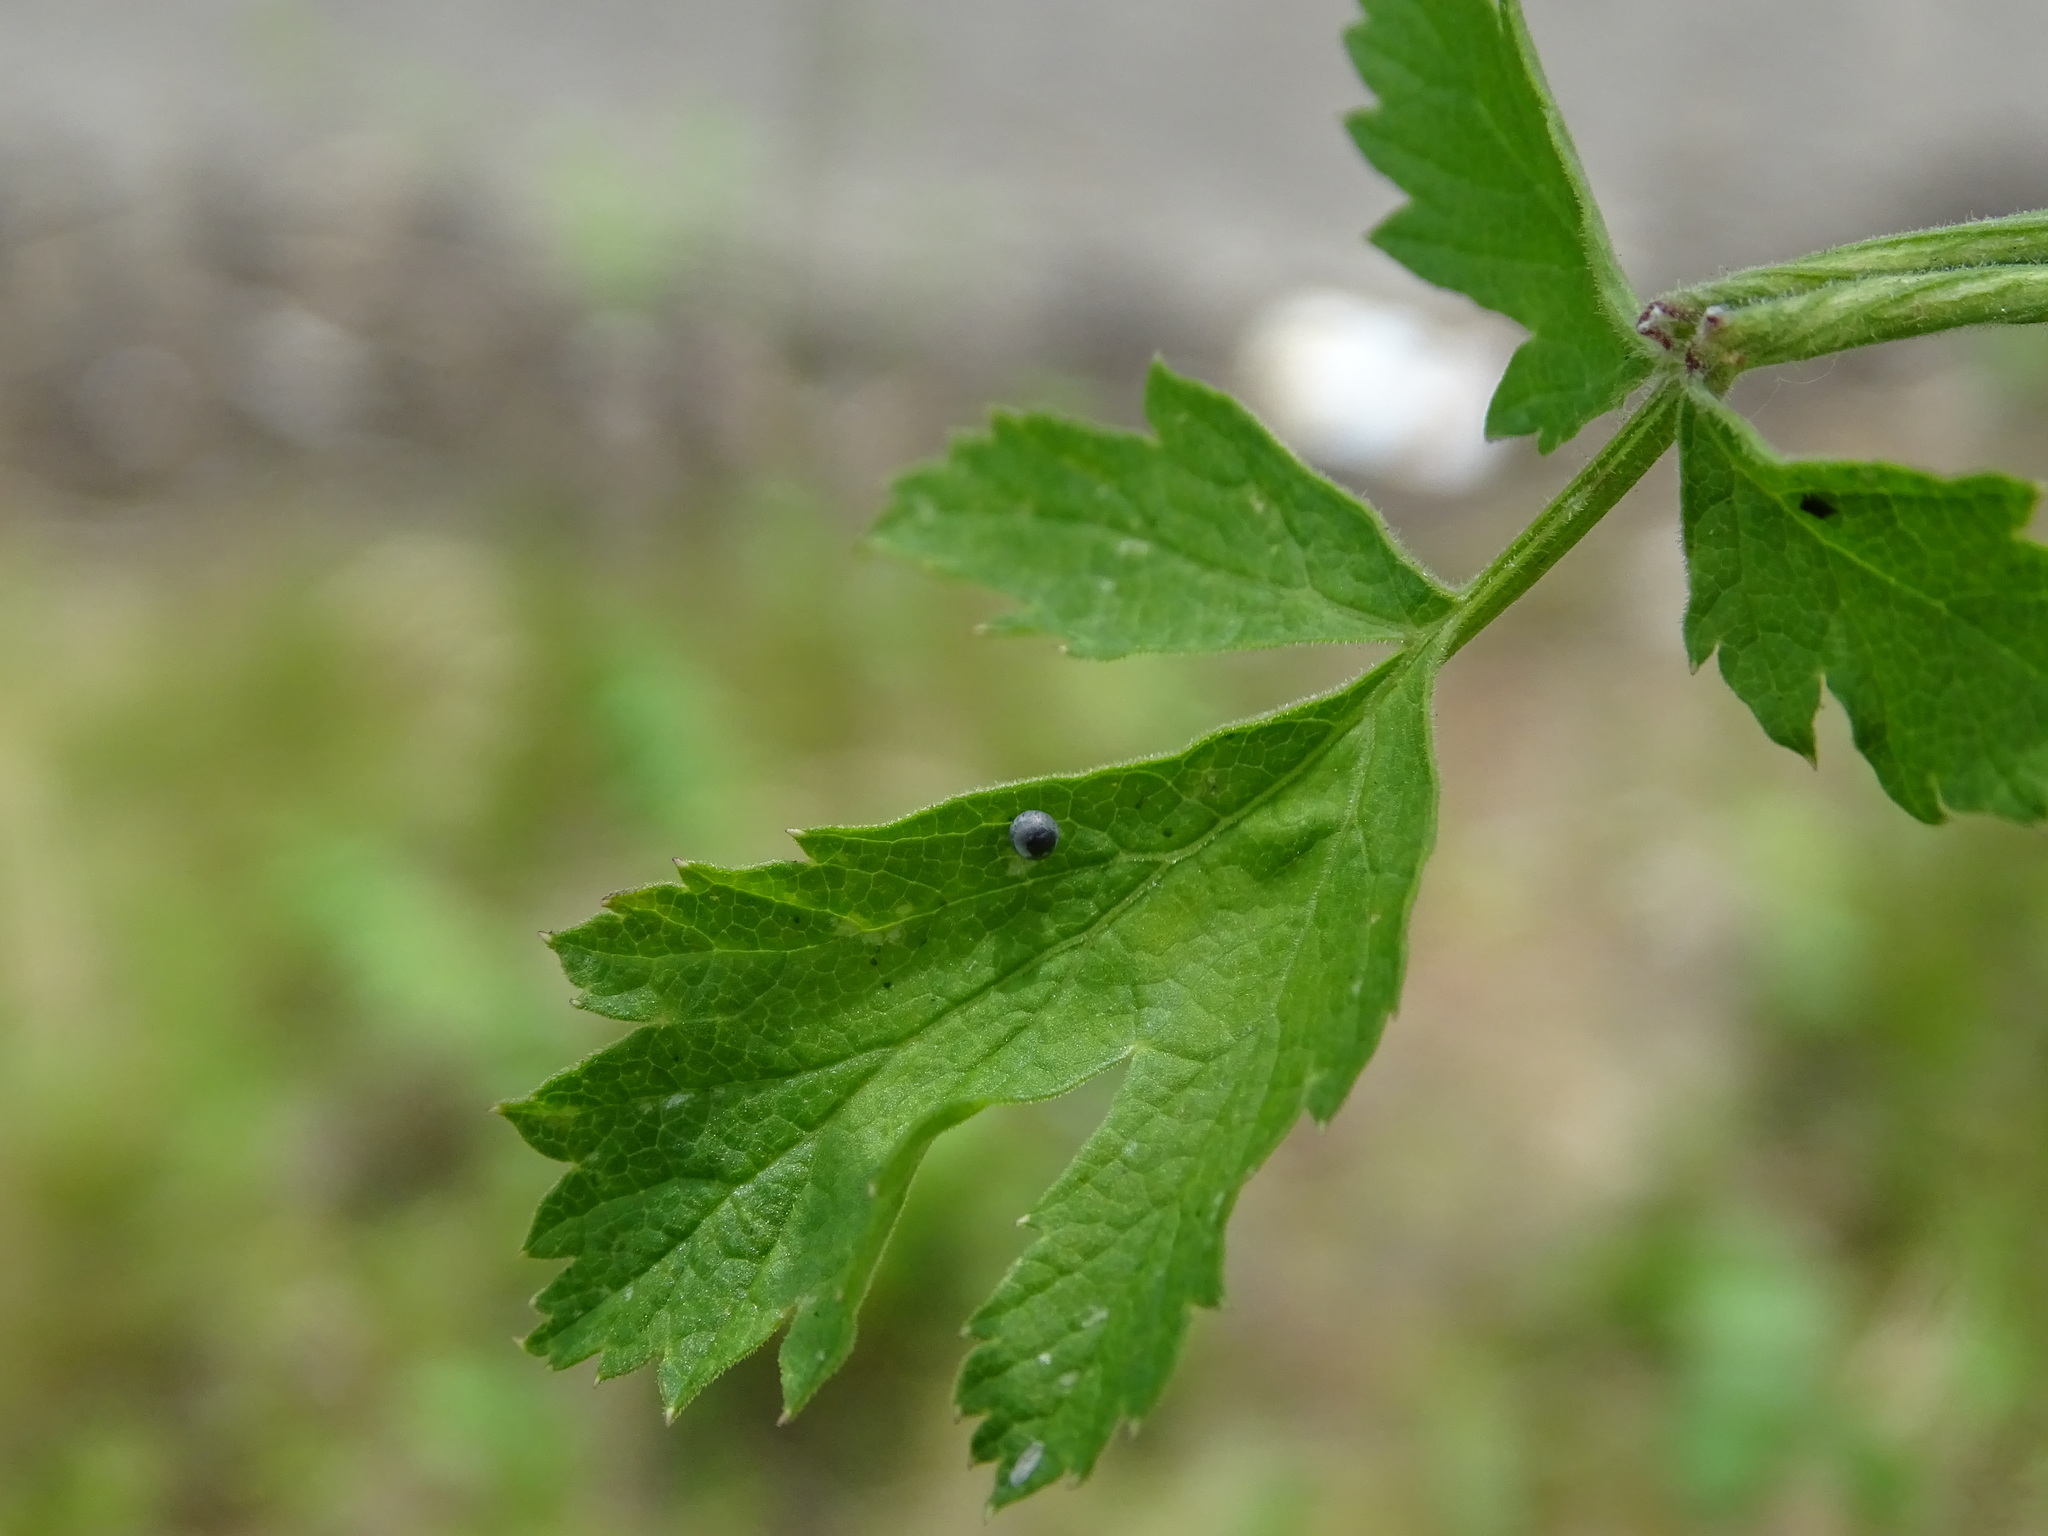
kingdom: Animalia
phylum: Arthropoda
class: Insecta
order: Lepidoptera
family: Papilionidae
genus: Papilio
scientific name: Papilio machaon
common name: Swallowtail
